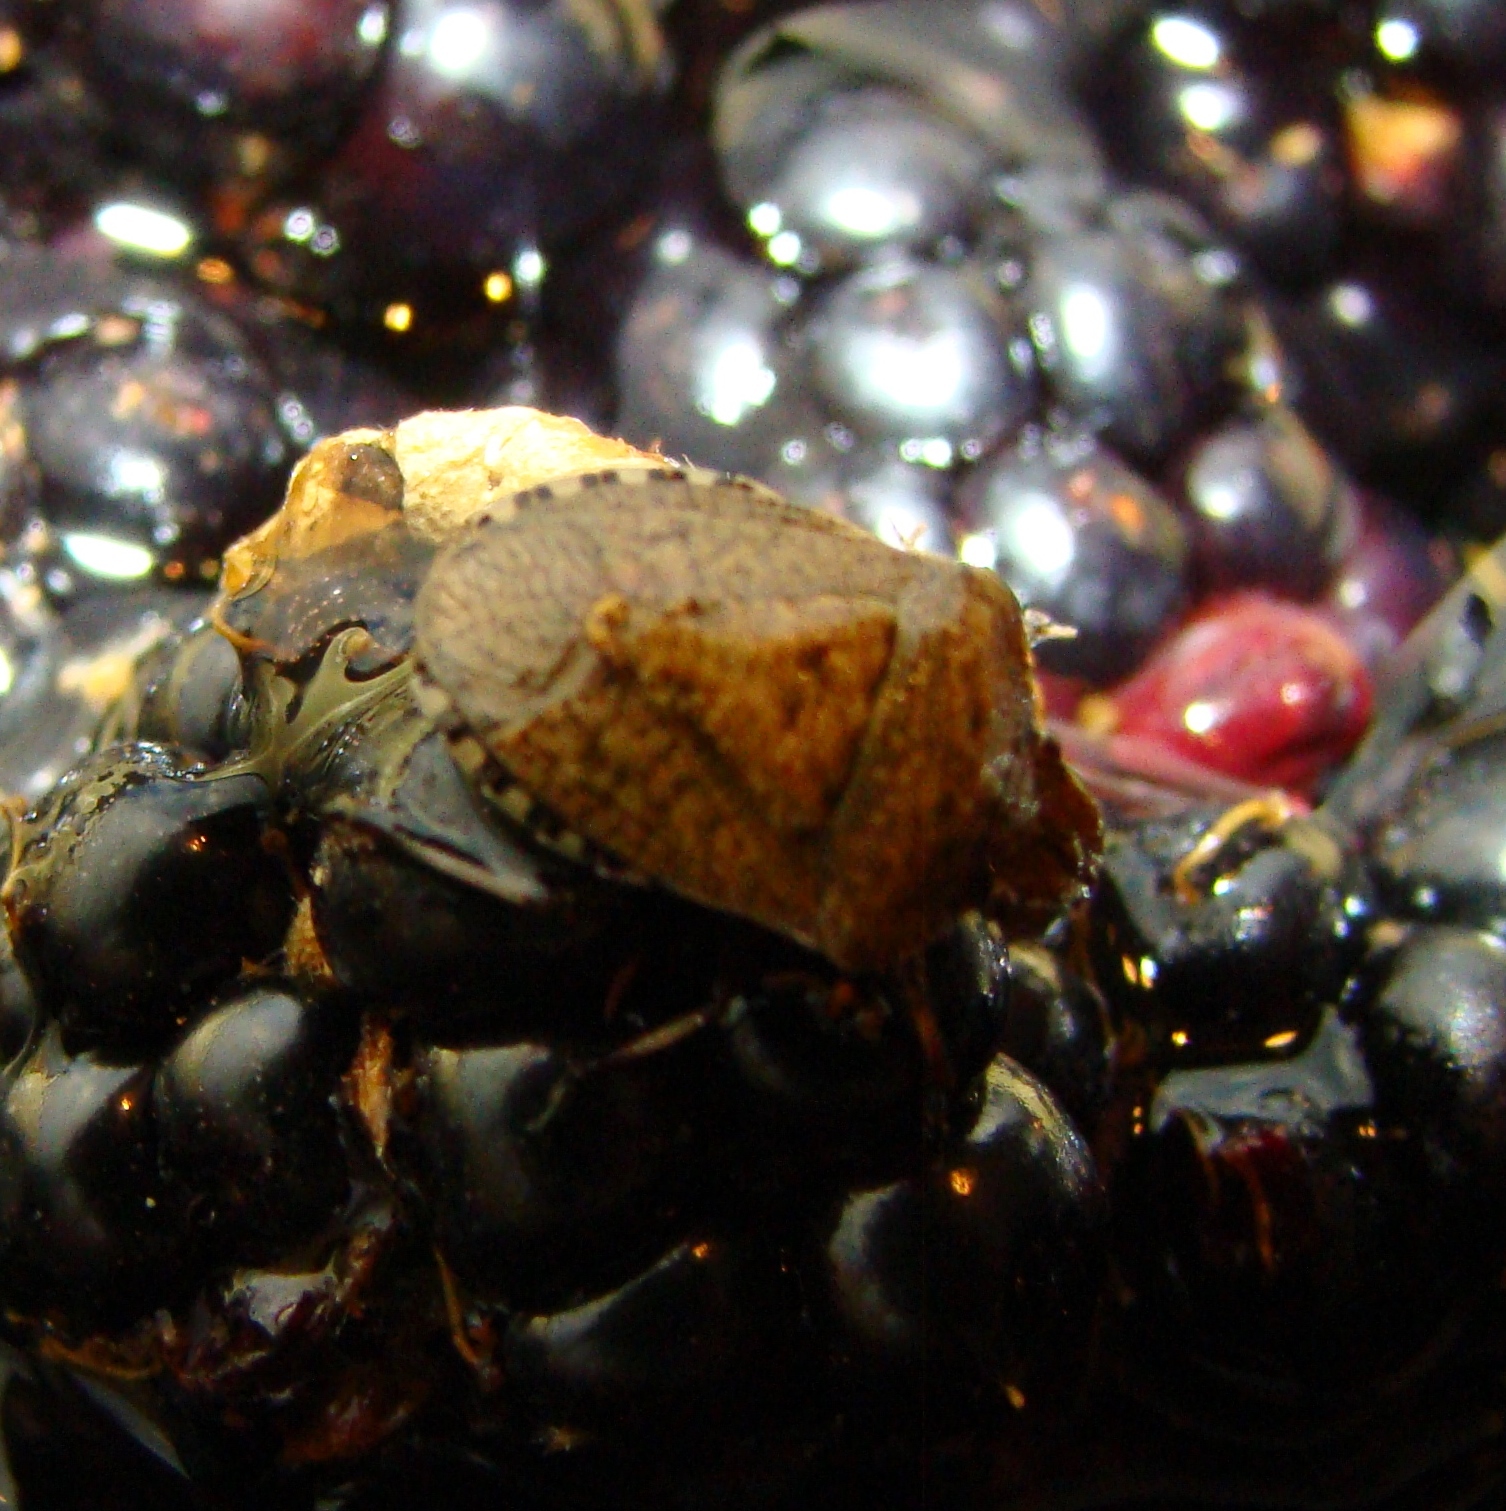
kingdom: Animalia
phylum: Arthropoda
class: Insecta
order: Hemiptera
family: Pentatomidae
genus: Dictyotus
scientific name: Dictyotus caenosus
